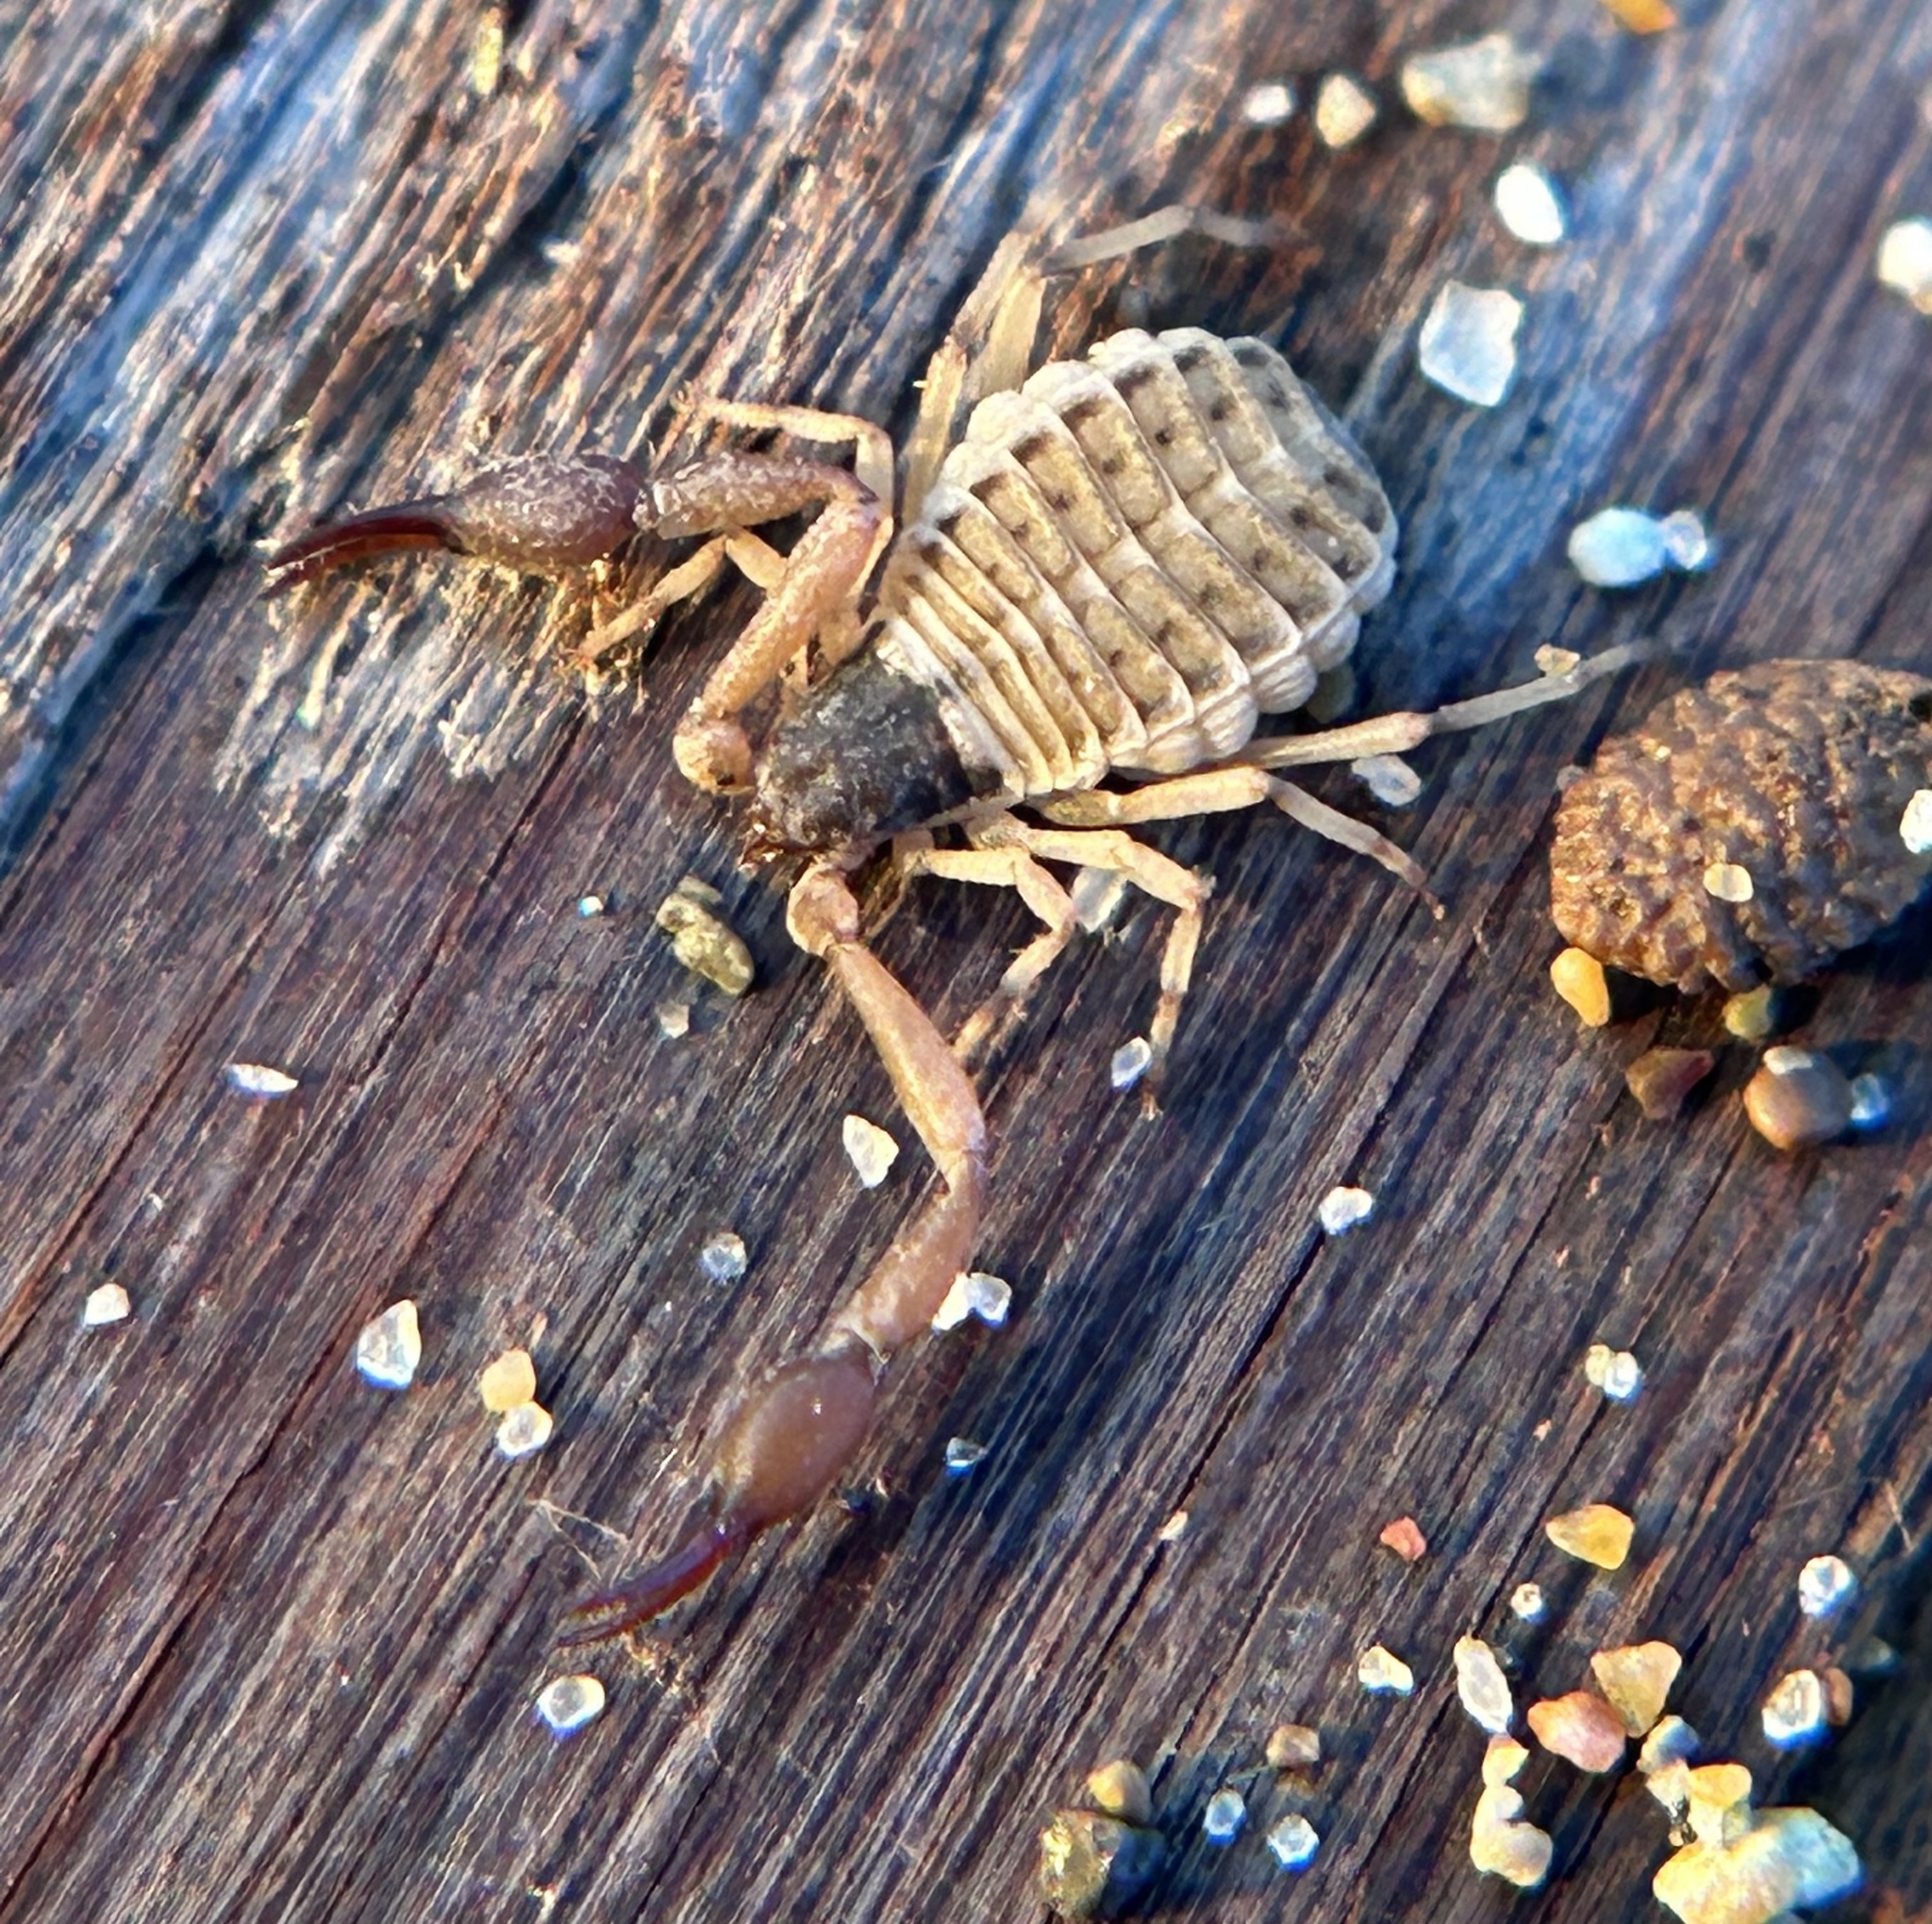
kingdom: Animalia
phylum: Arthropoda
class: Arachnida
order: Pseudoscorpiones
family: Garypidae
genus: Anchigarypus
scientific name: Anchigarypus californicus
